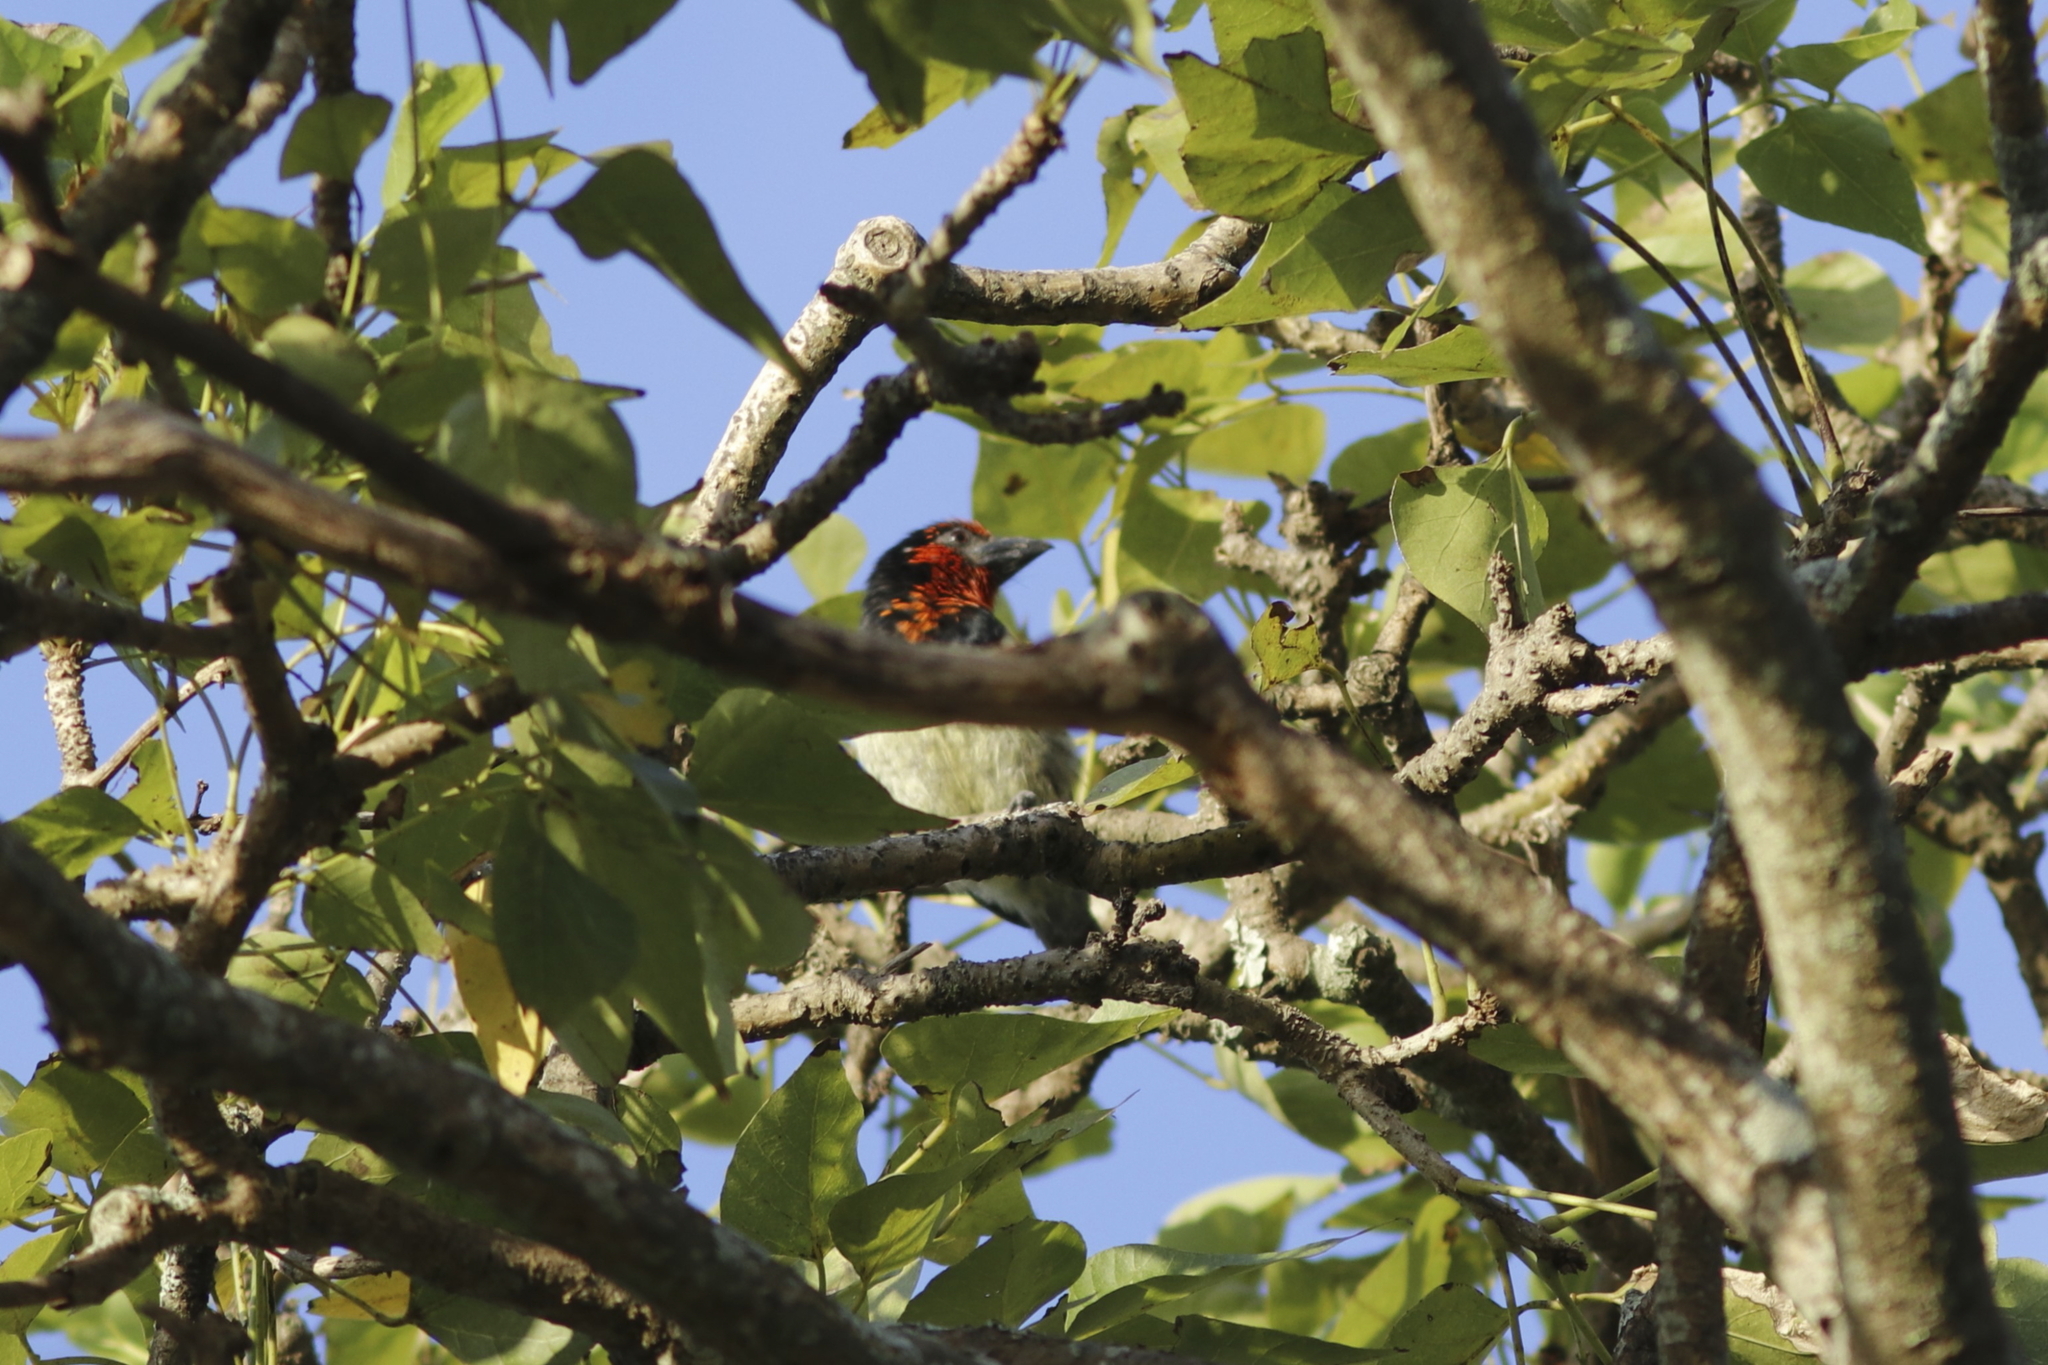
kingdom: Animalia
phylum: Chordata
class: Aves
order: Piciformes
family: Lybiidae
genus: Lybius
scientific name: Lybius torquatus
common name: Black-collared barbet
